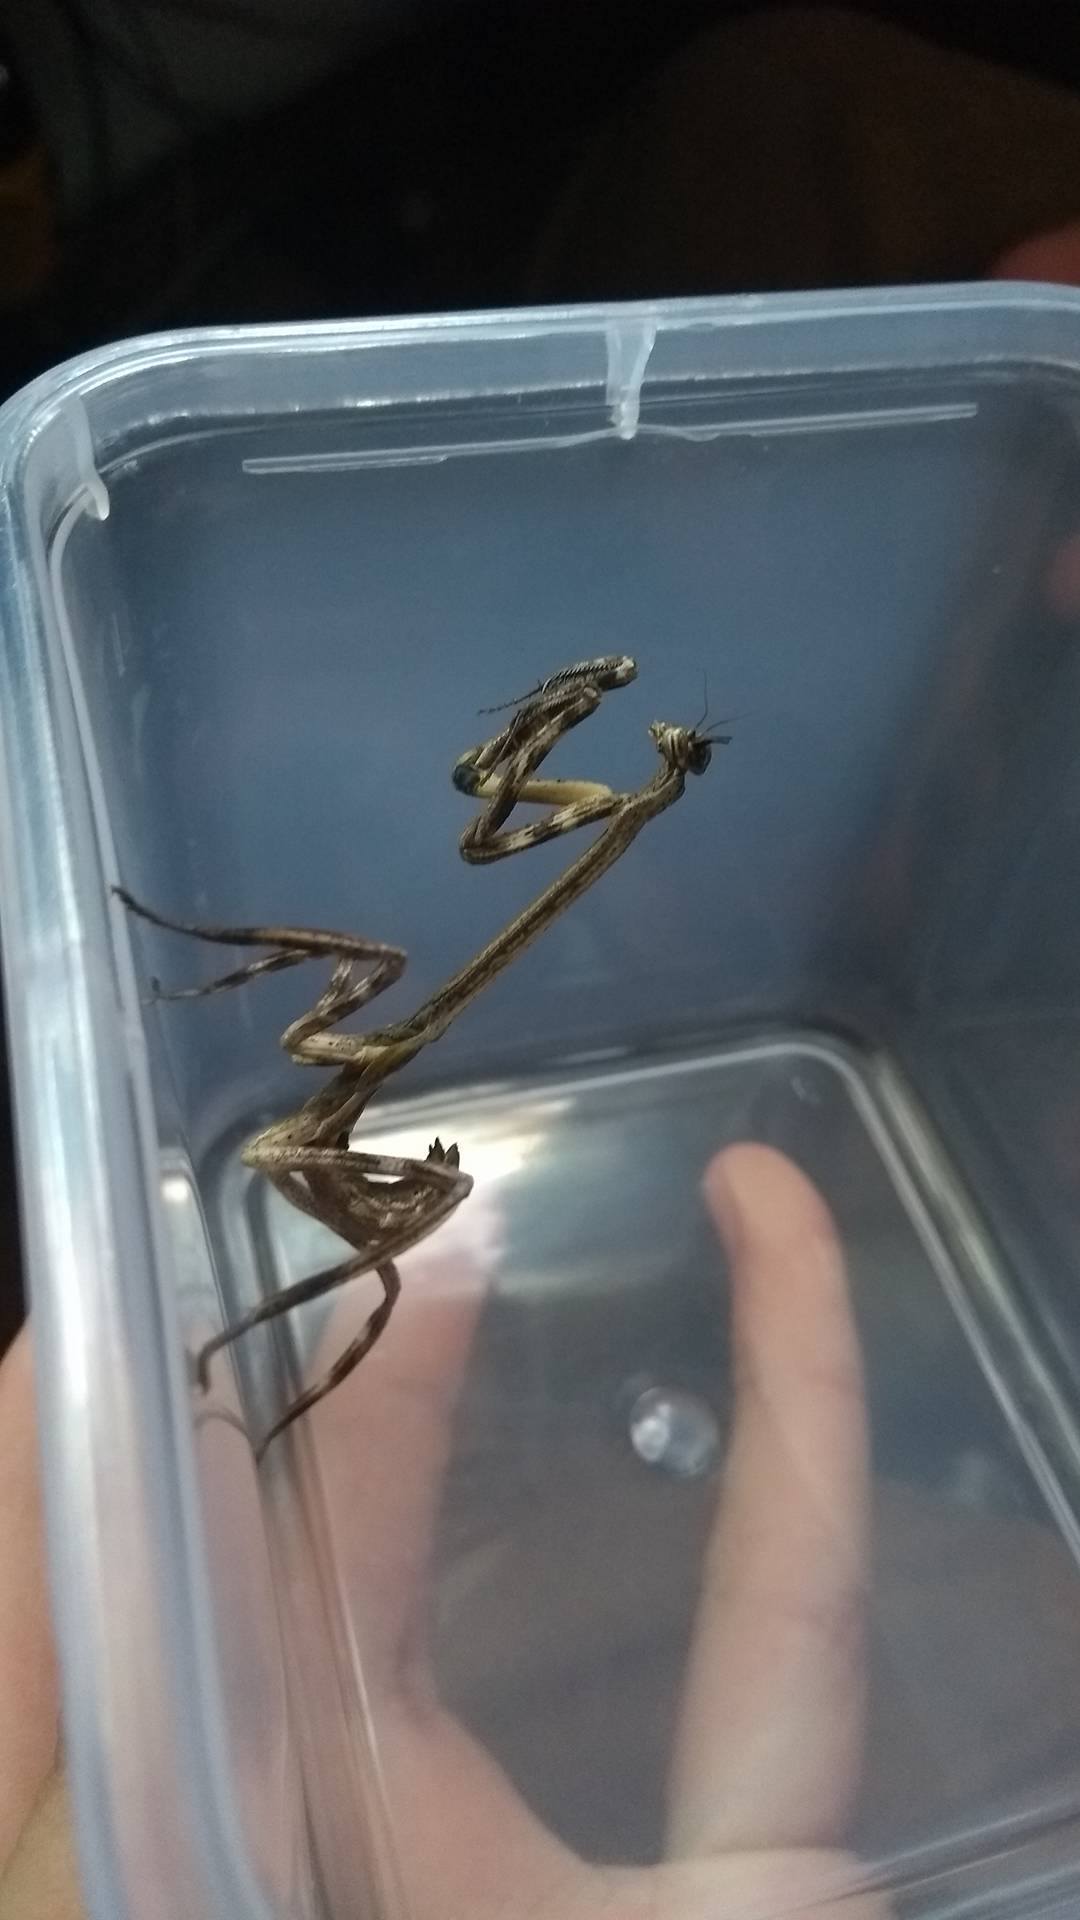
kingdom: Animalia
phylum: Arthropoda
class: Insecta
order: Mantodea
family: Mantidae
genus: Pseudovates
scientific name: Pseudovates chlorophaea
